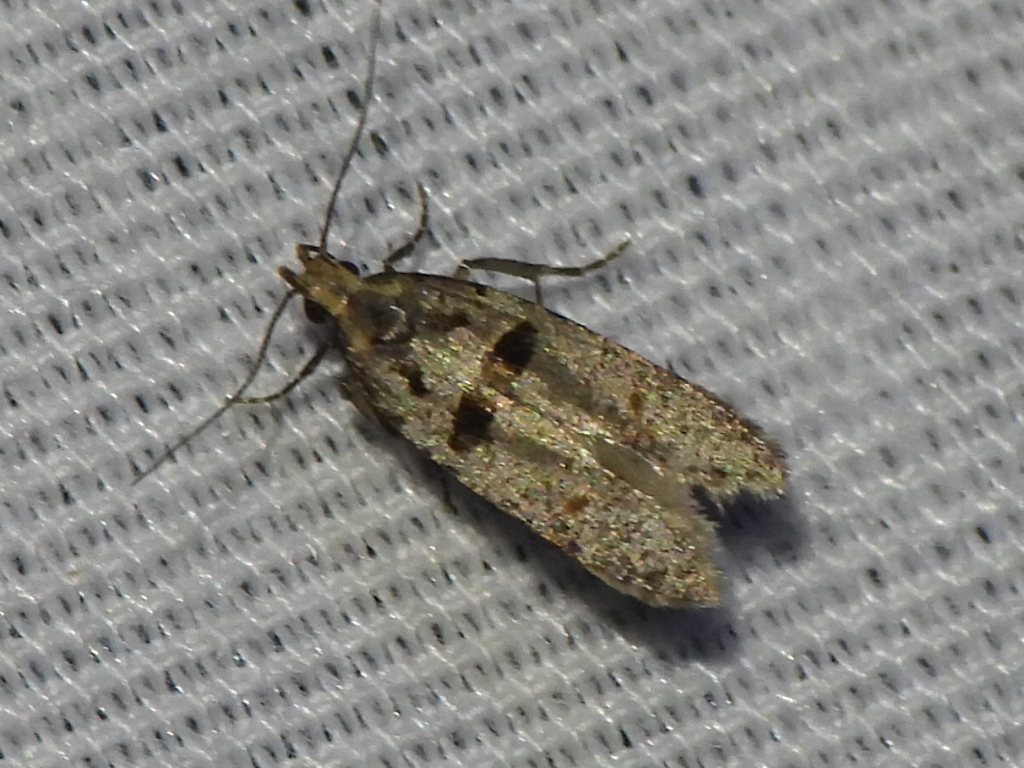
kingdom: Animalia
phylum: Arthropoda
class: Insecta
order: Lepidoptera
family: Gelechiidae
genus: Deltophora
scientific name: Deltophora glandiferella
